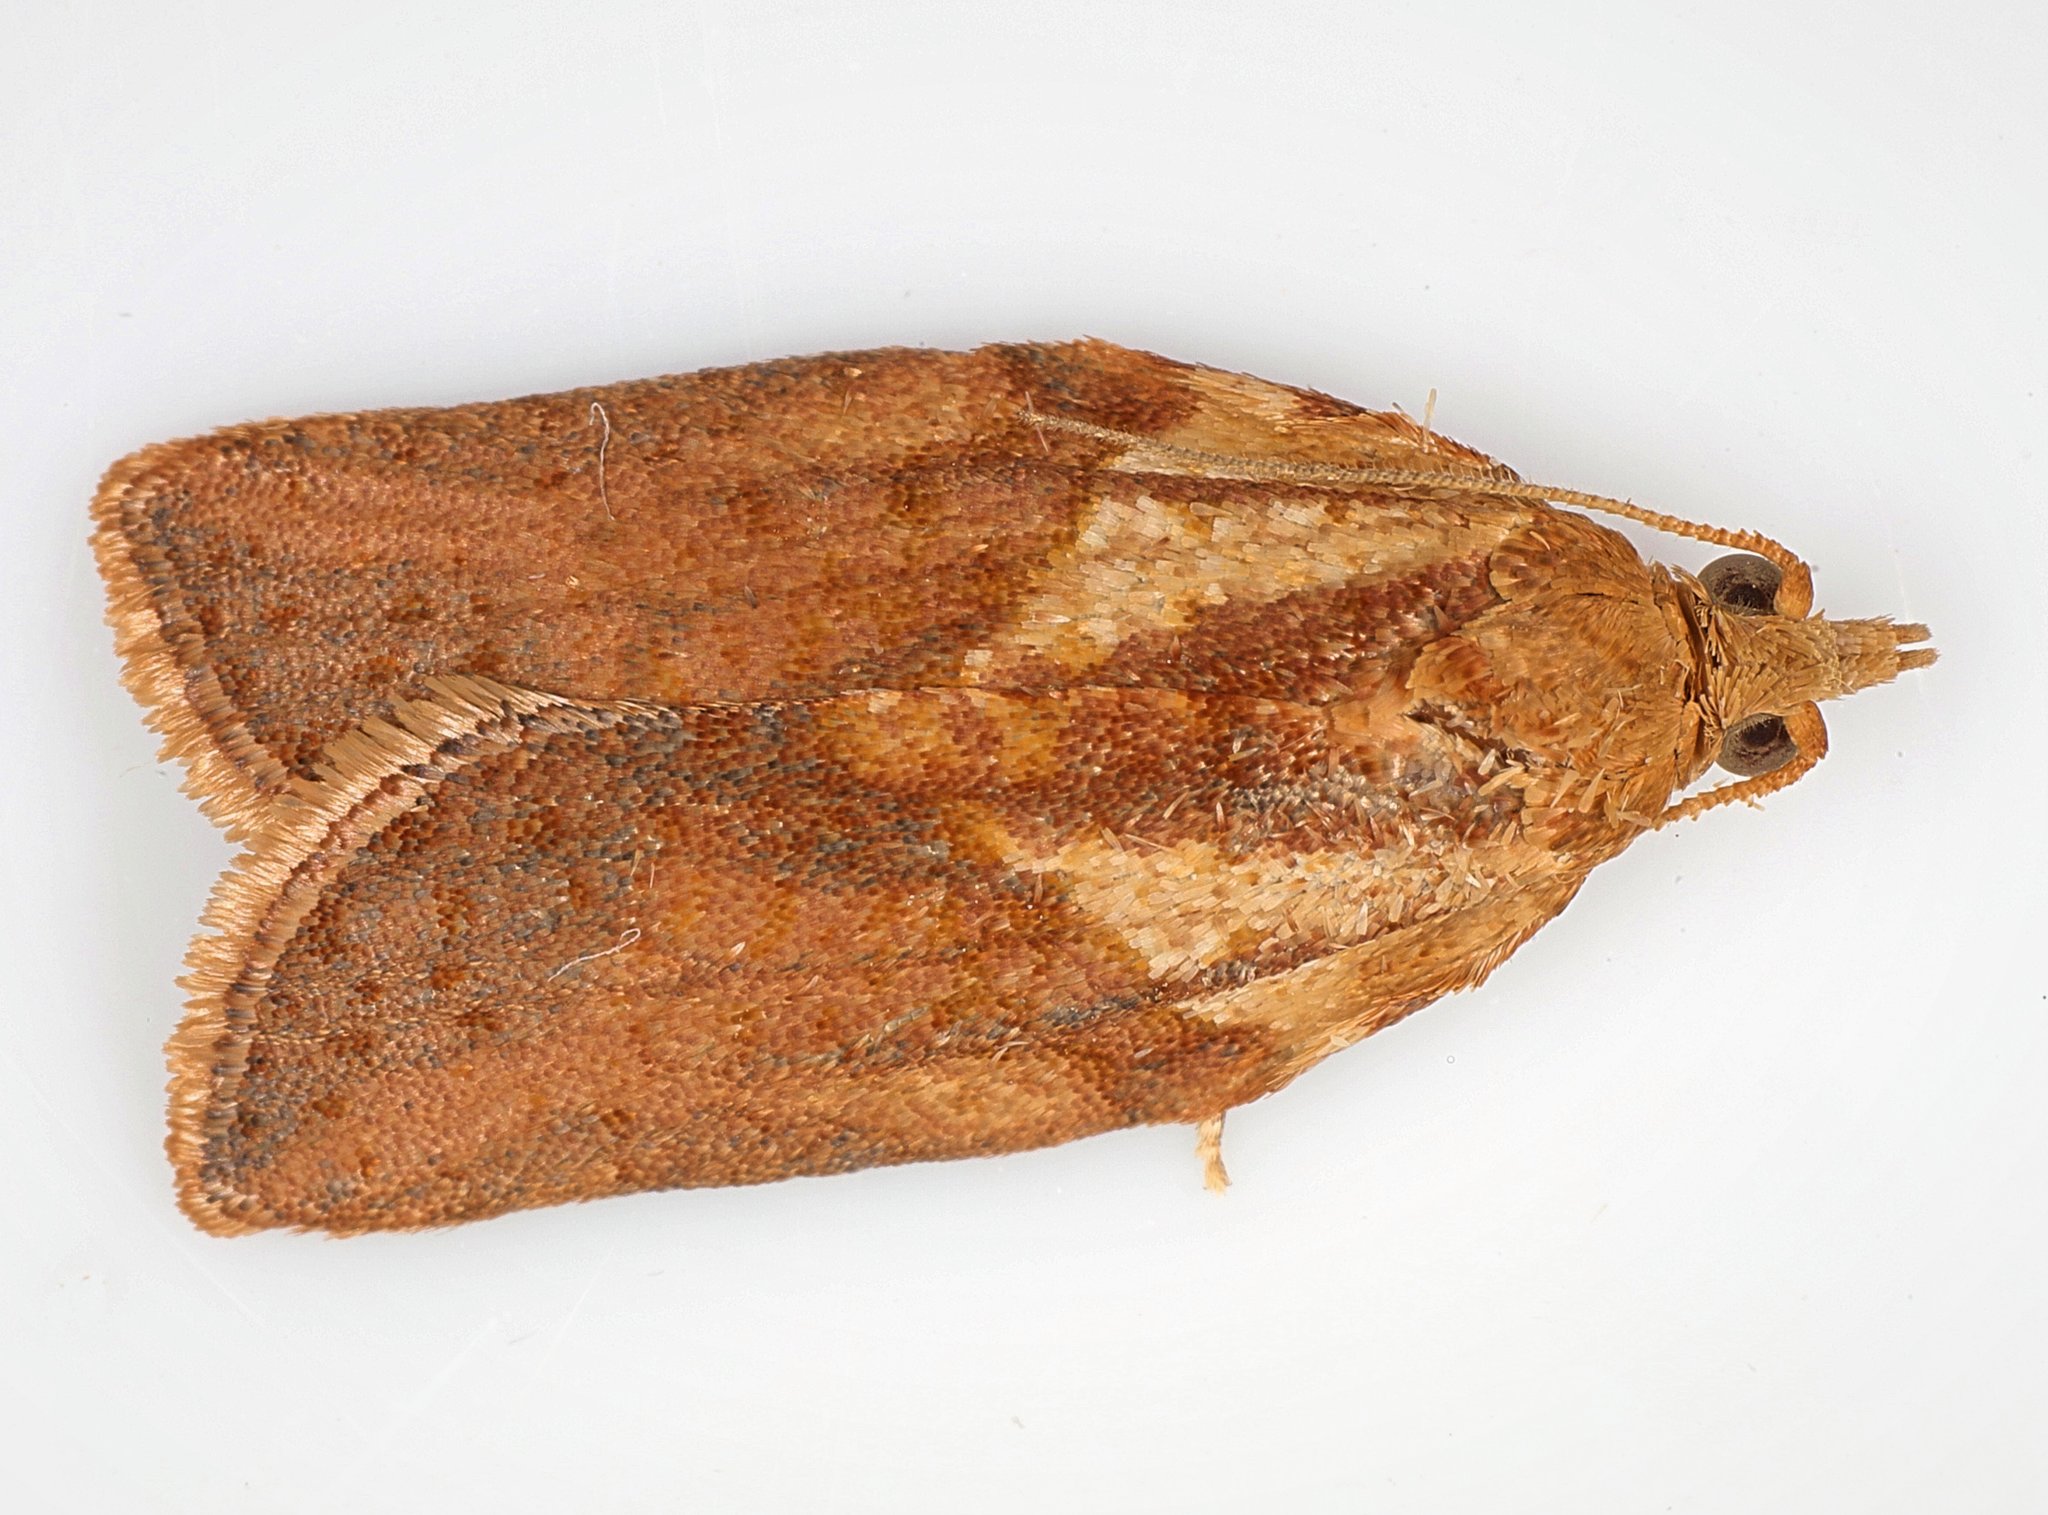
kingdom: Animalia
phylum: Arthropoda
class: Insecta
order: Lepidoptera
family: Tortricidae
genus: Epiphyas
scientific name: Epiphyas postvittana
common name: Light brown apple moth
